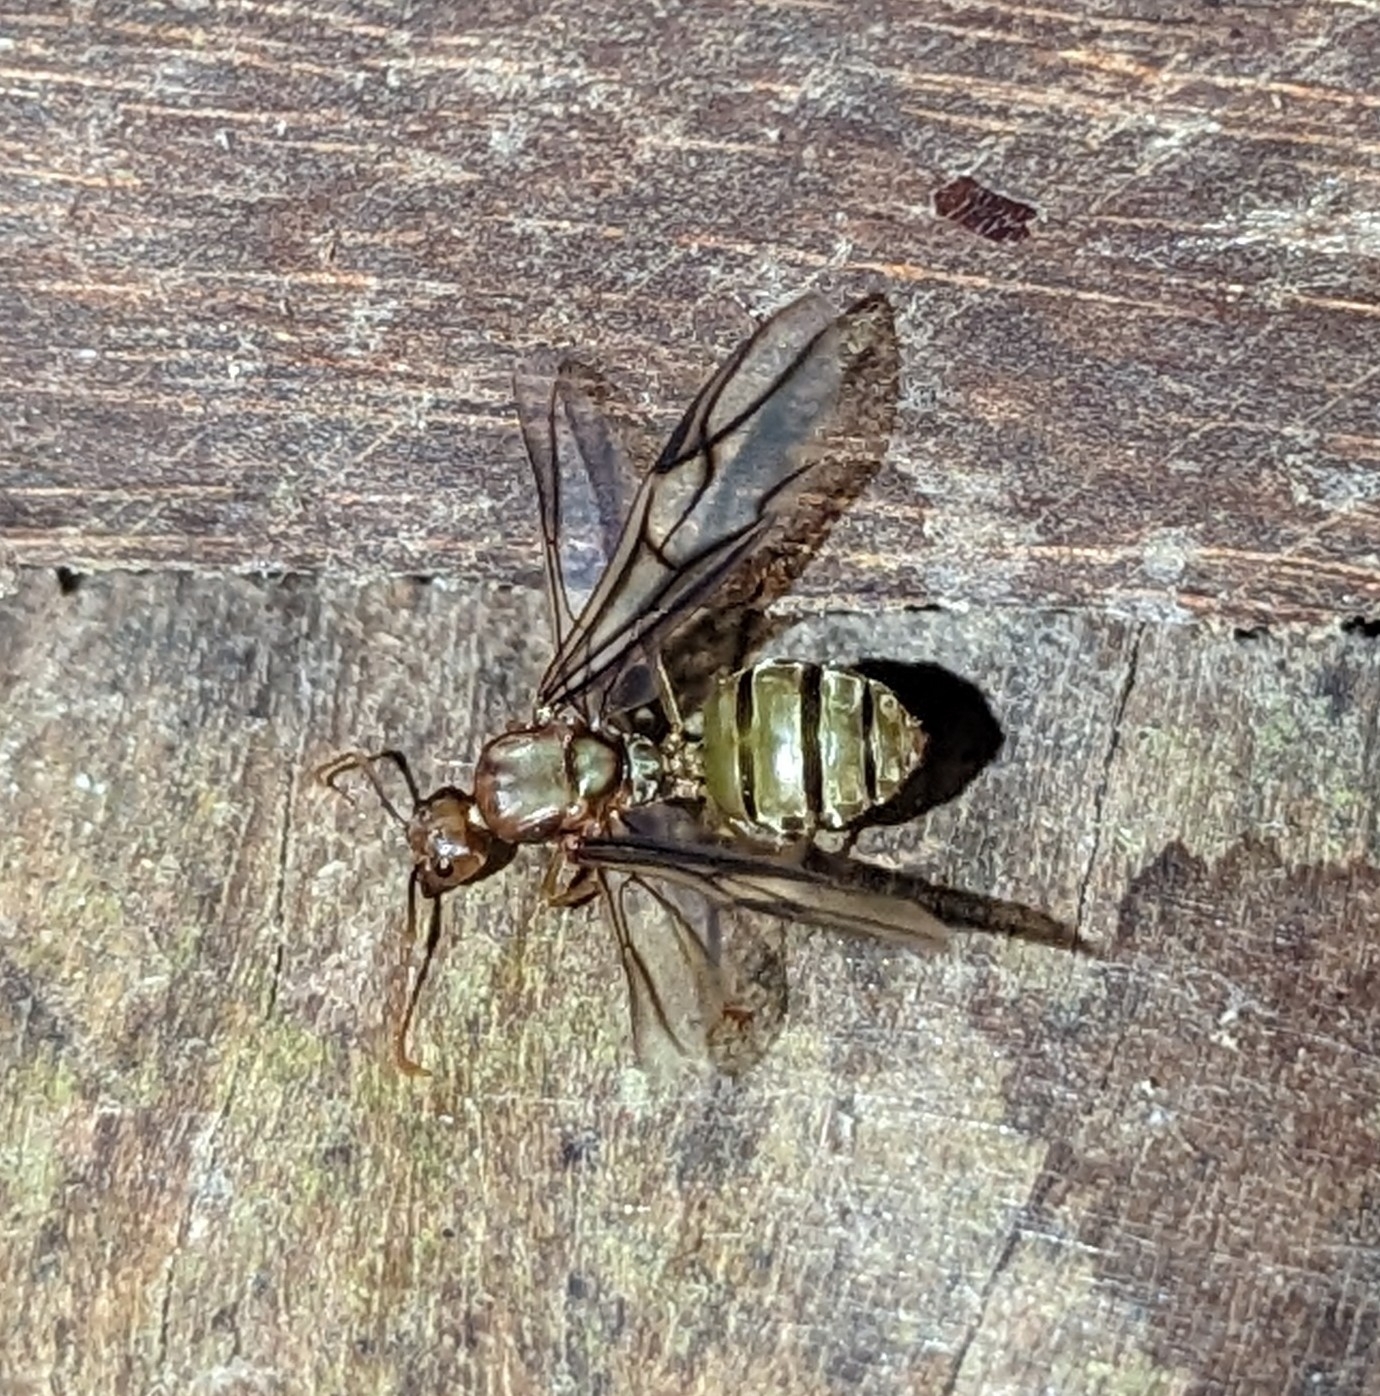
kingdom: Animalia
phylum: Arthropoda
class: Insecta
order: Hymenoptera
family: Formicidae
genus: Oecophylla
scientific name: Oecophylla longinoda
